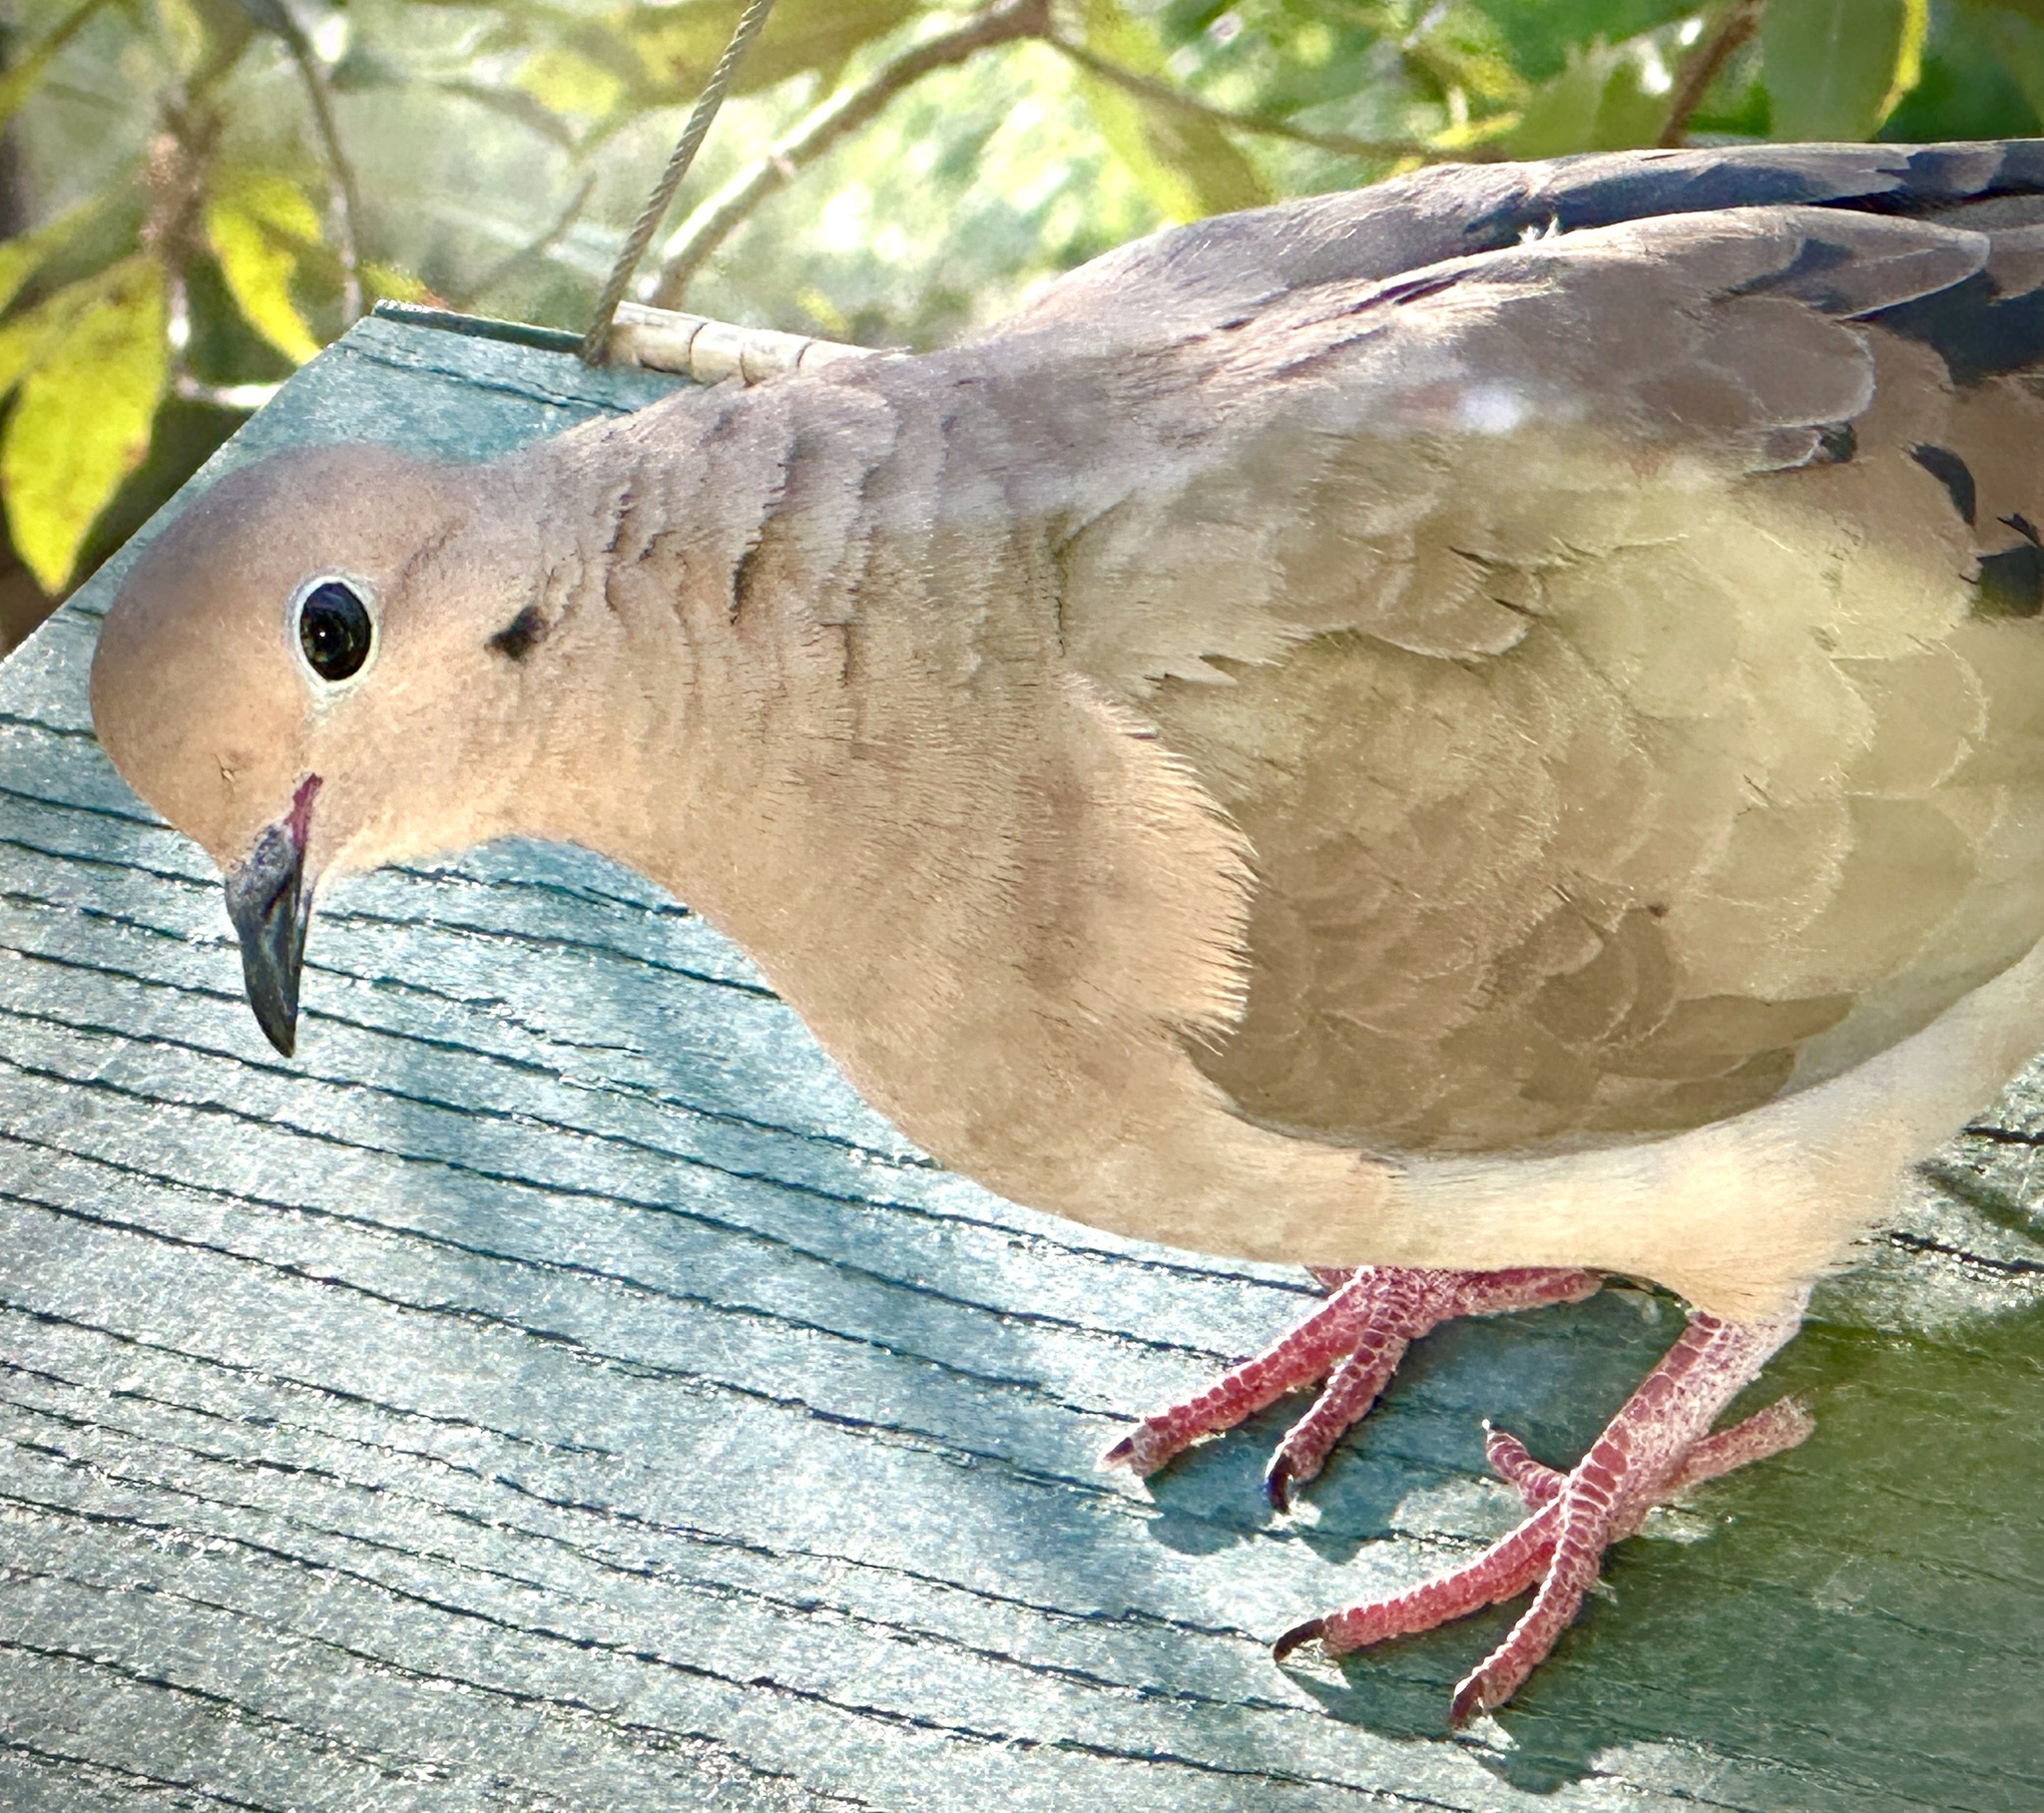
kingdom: Animalia
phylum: Chordata
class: Aves
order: Columbiformes
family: Columbidae
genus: Zenaida
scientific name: Zenaida macroura
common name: Mourning dove
